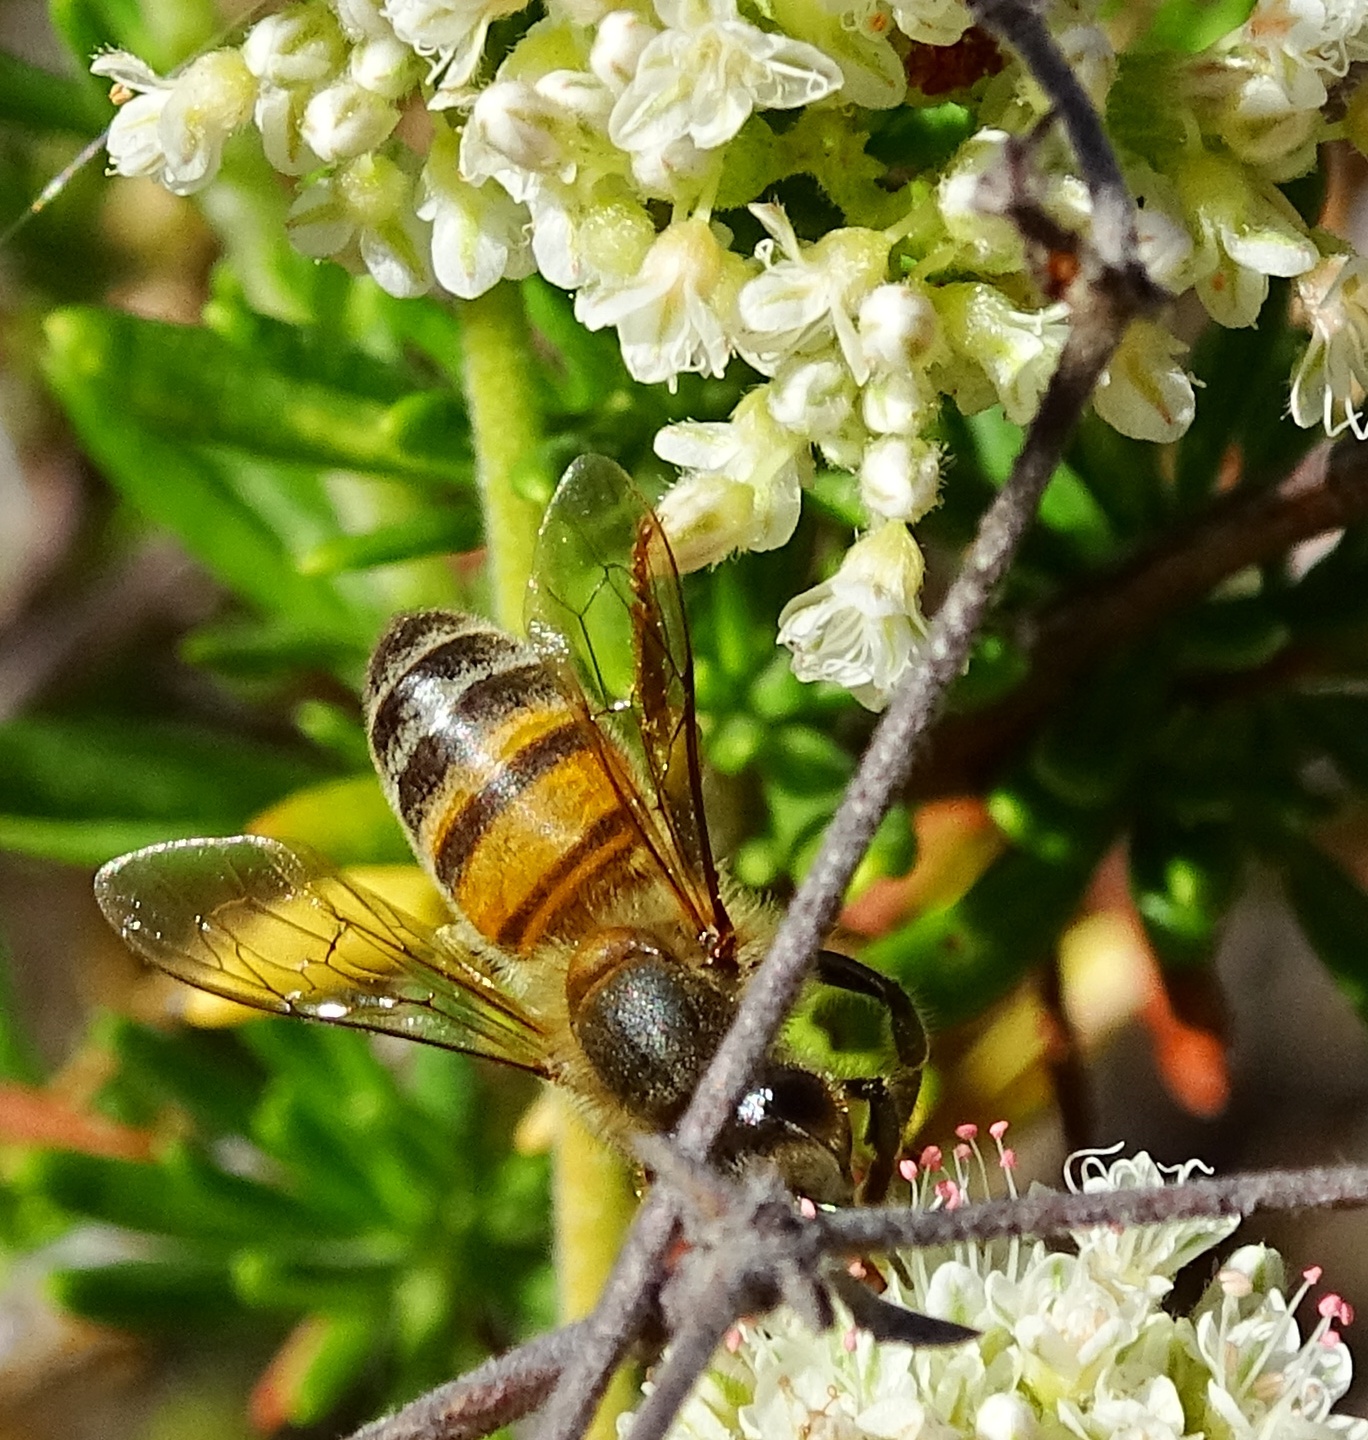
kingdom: Animalia
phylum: Arthropoda
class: Insecta
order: Hymenoptera
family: Apidae
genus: Apis
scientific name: Apis mellifera
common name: Honey bee
